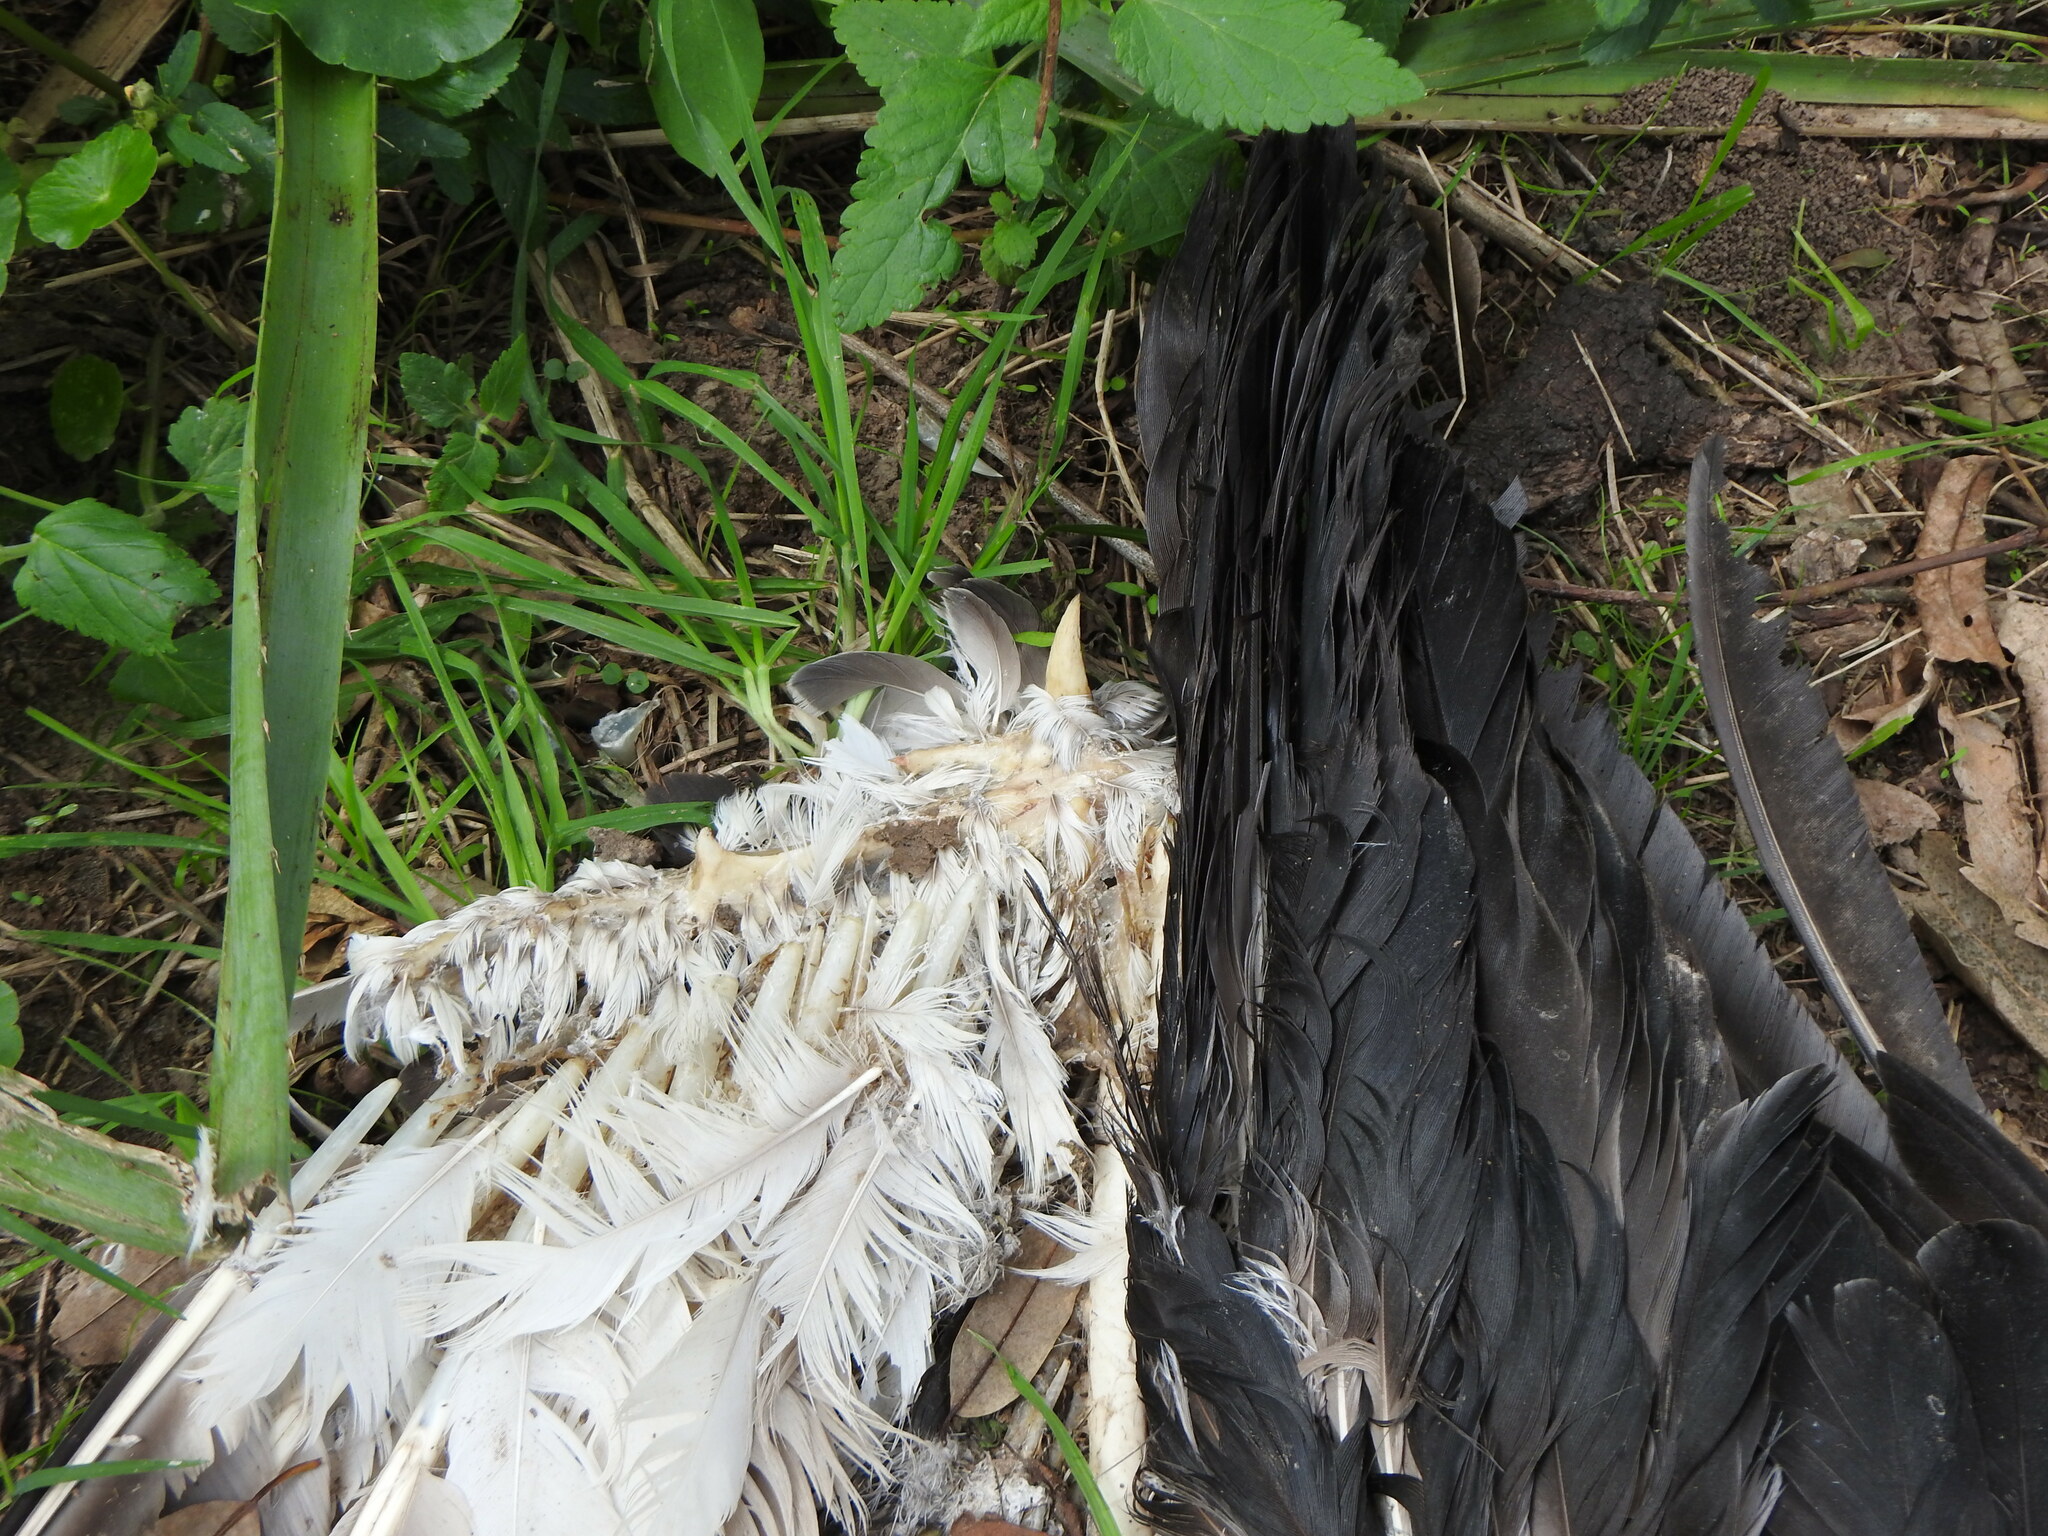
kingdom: Animalia
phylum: Chordata
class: Aves
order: Anseriformes
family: Anhimidae
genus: Chauna
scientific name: Chauna torquata
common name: Southern screamer
